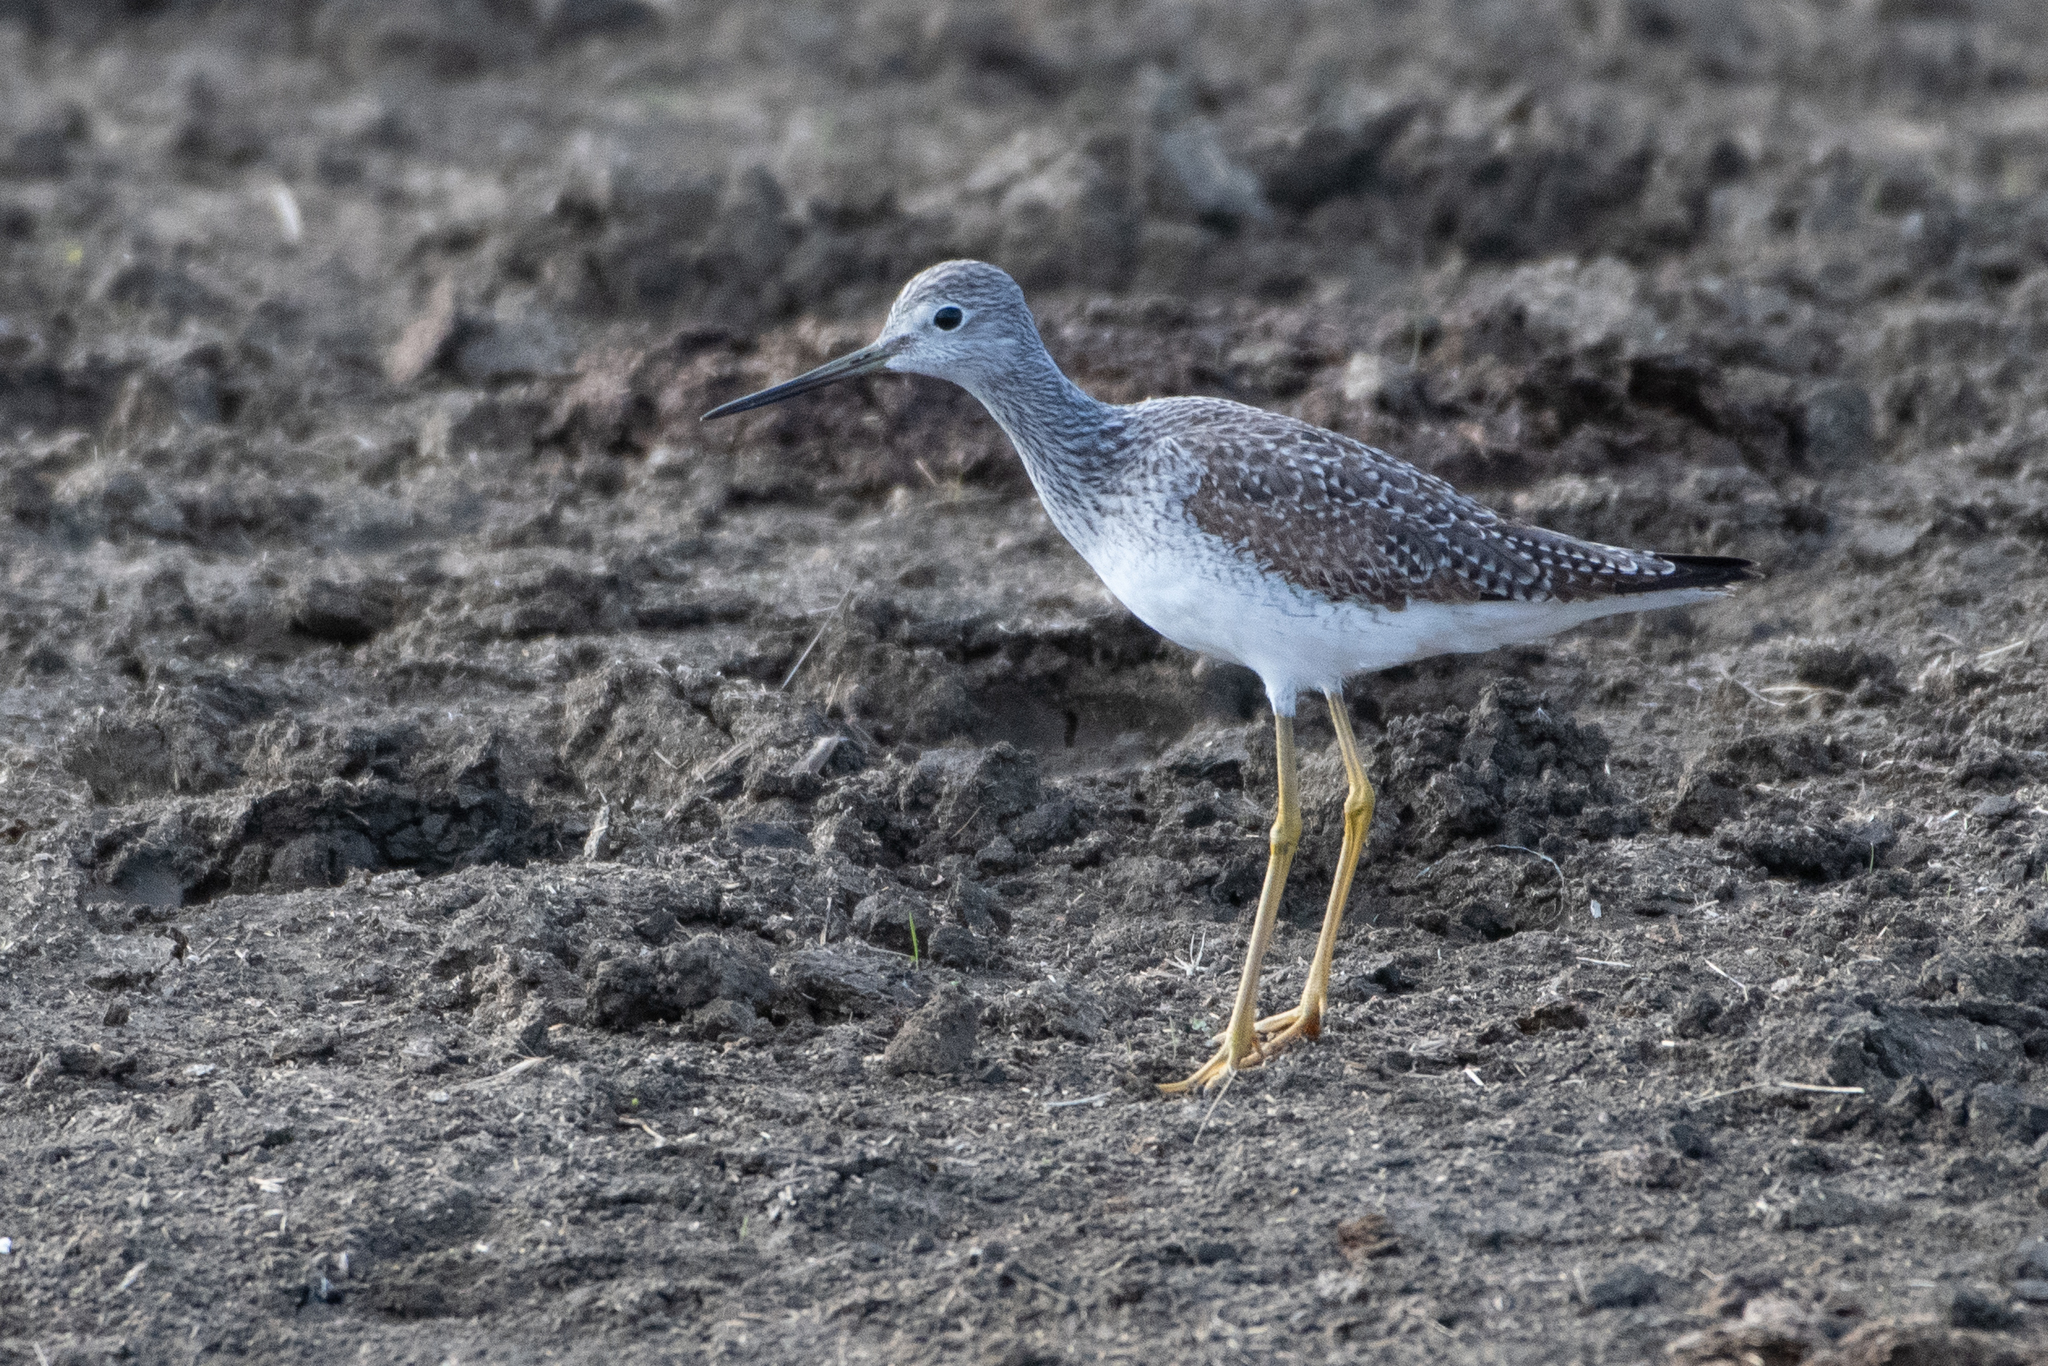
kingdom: Animalia
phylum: Chordata
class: Aves
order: Charadriiformes
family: Scolopacidae
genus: Tringa
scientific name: Tringa melanoleuca
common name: Greater yellowlegs
